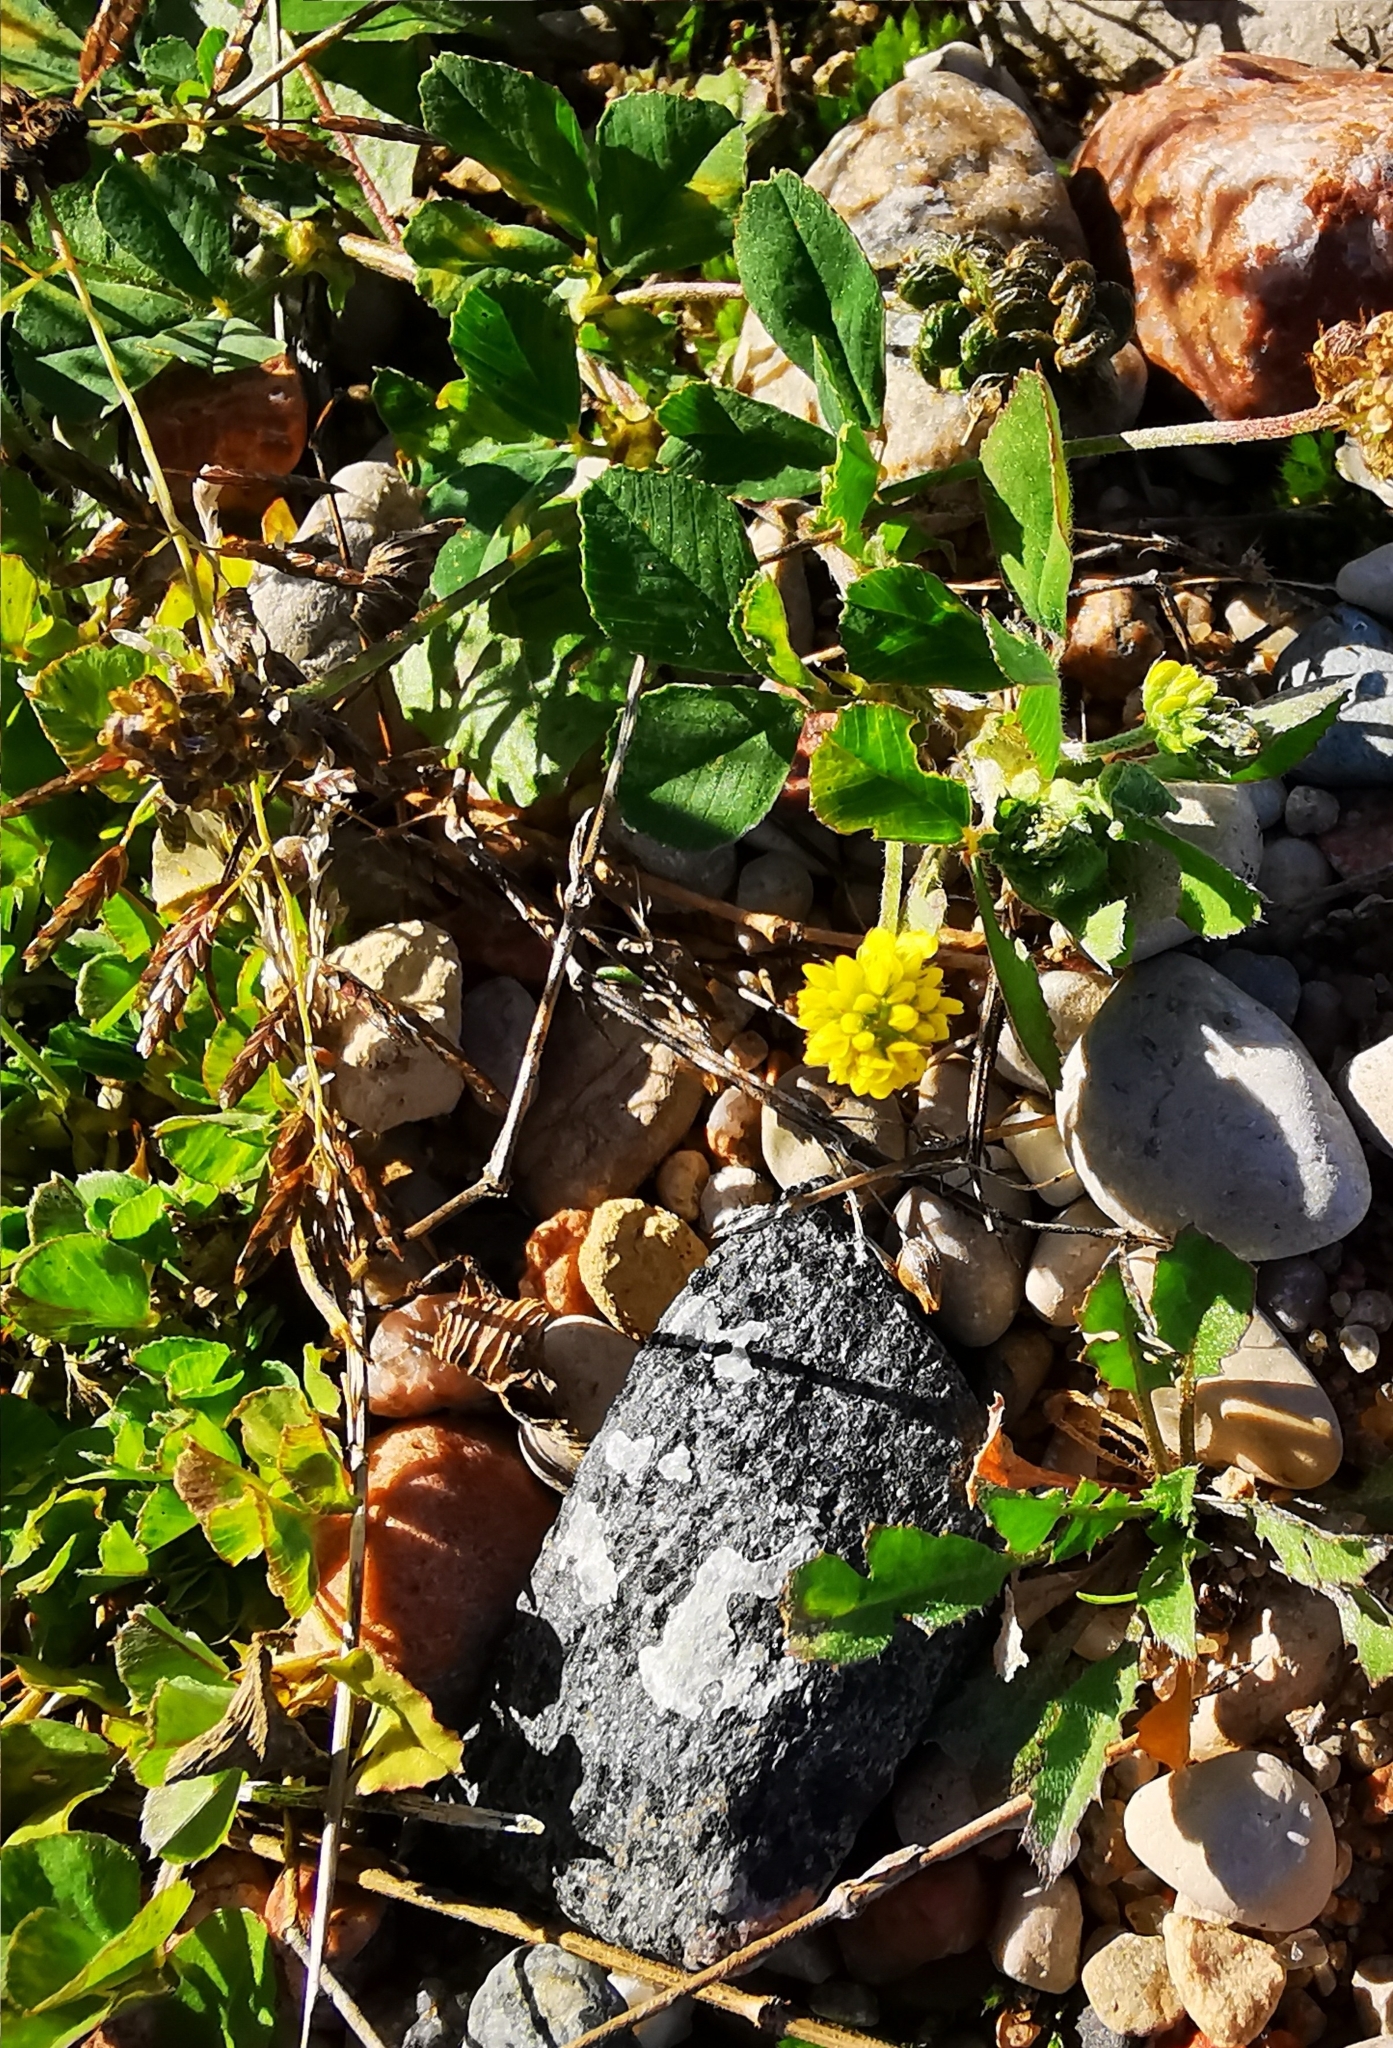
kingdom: Plantae
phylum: Tracheophyta
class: Magnoliopsida
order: Fabales
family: Fabaceae
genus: Medicago
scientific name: Medicago lupulina
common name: Black medick
